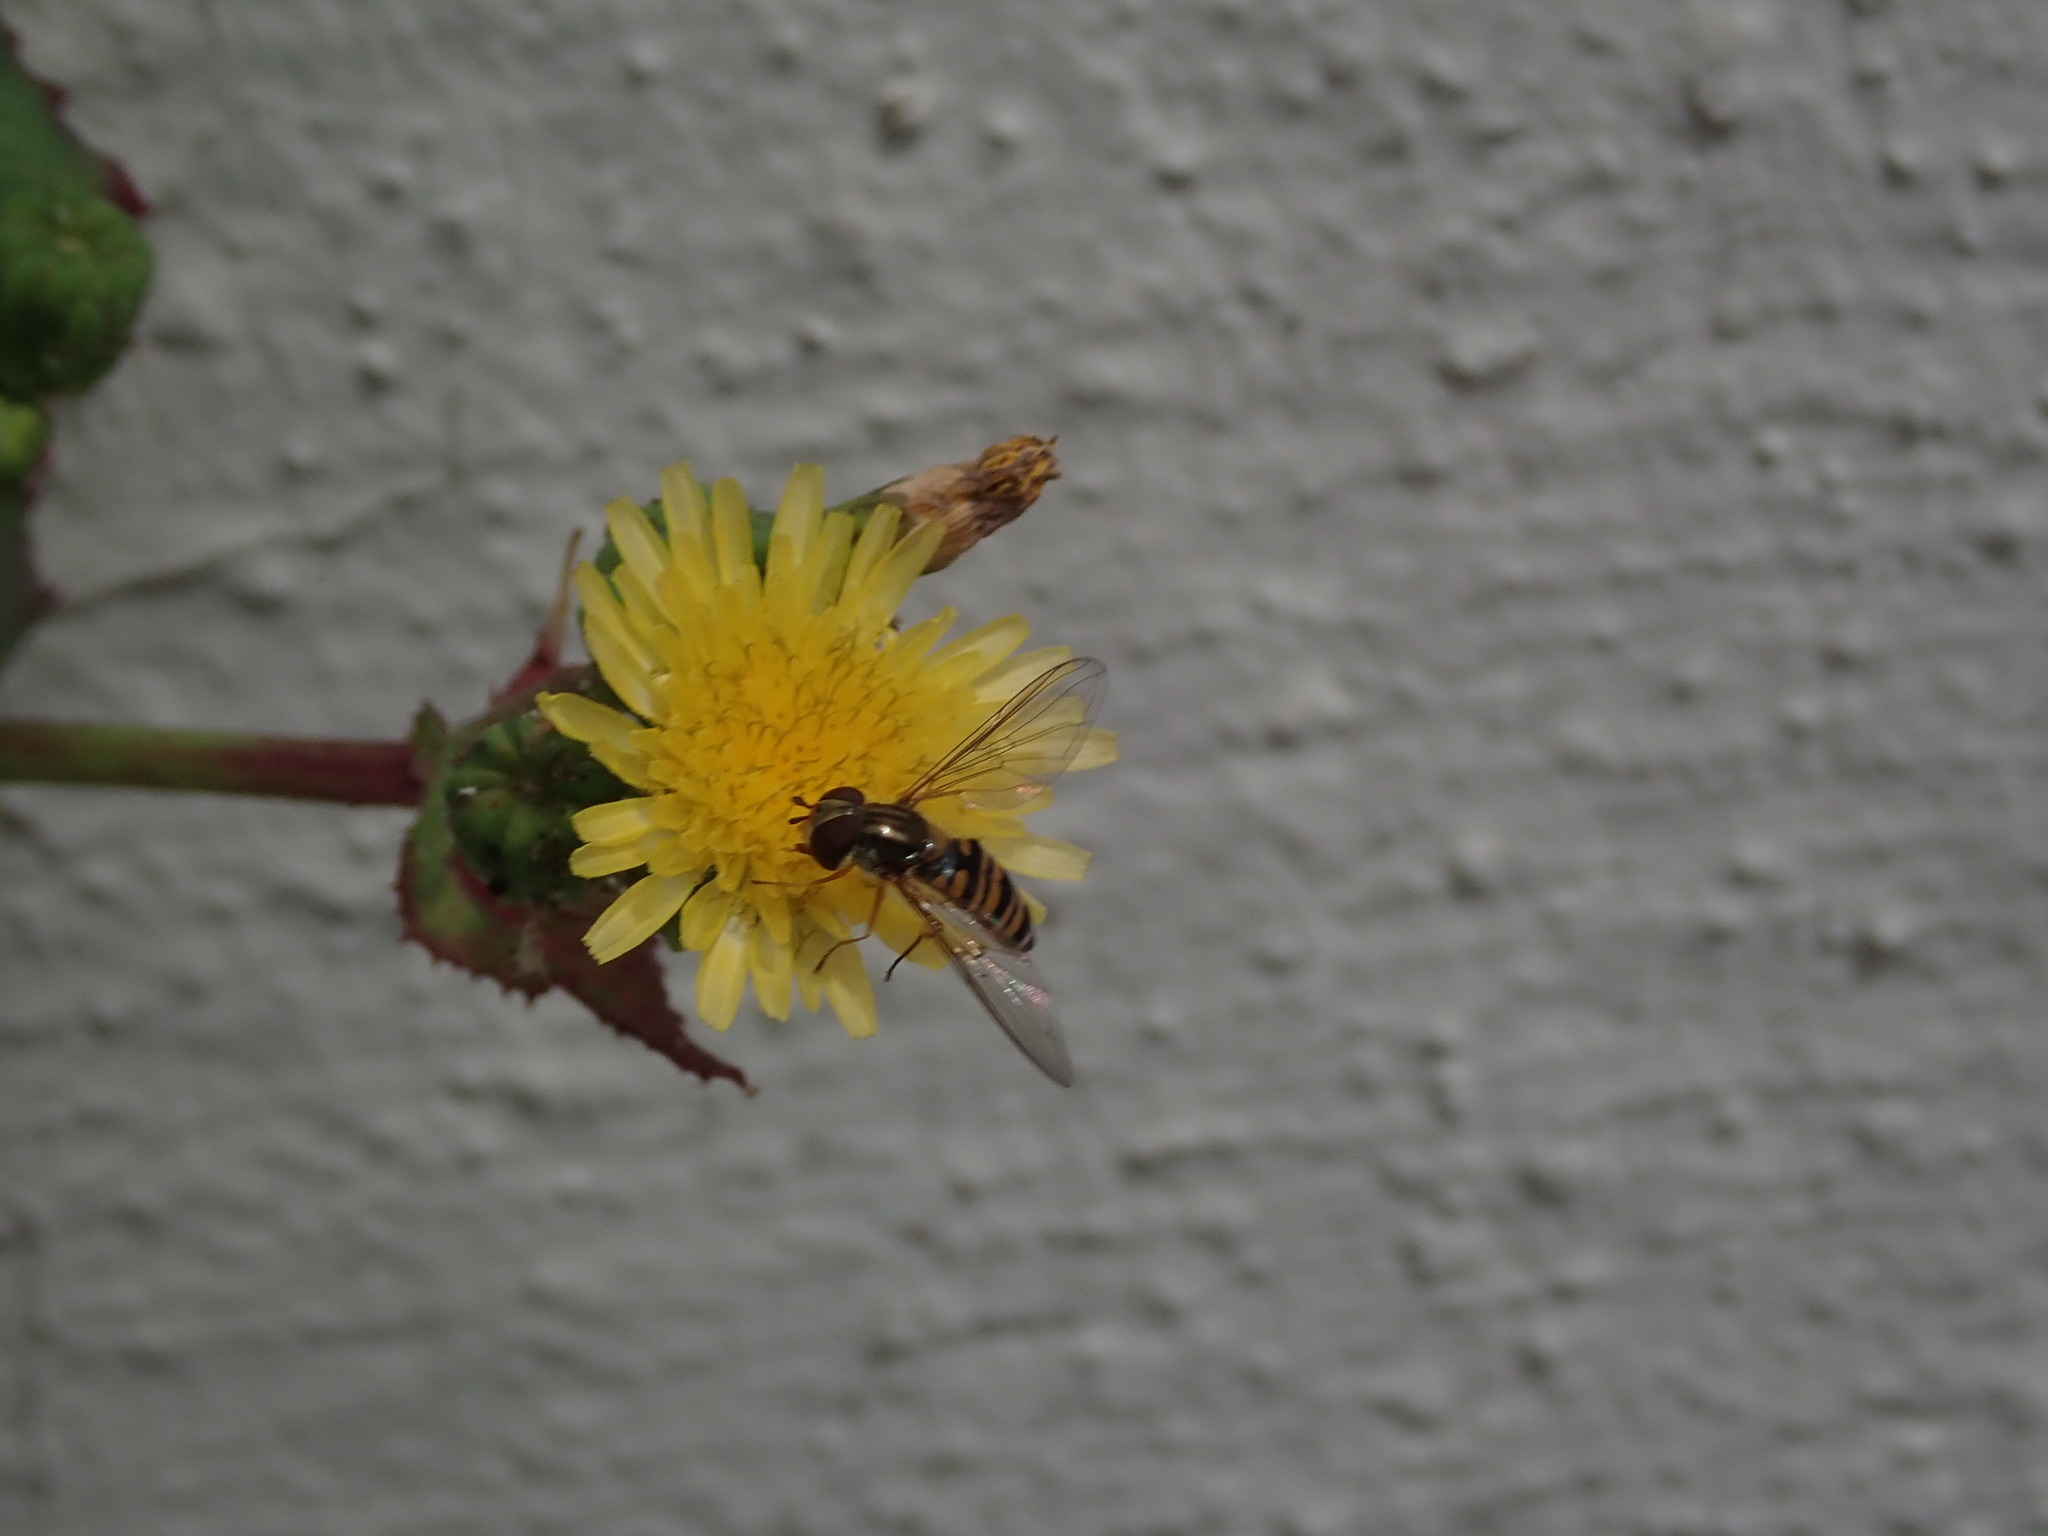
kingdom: Animalia
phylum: Arthropoda
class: Insecta
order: Diptera
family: Syrphidae
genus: Episyrphus
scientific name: Episyrphus balteatus
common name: Marmalade hoverfly
